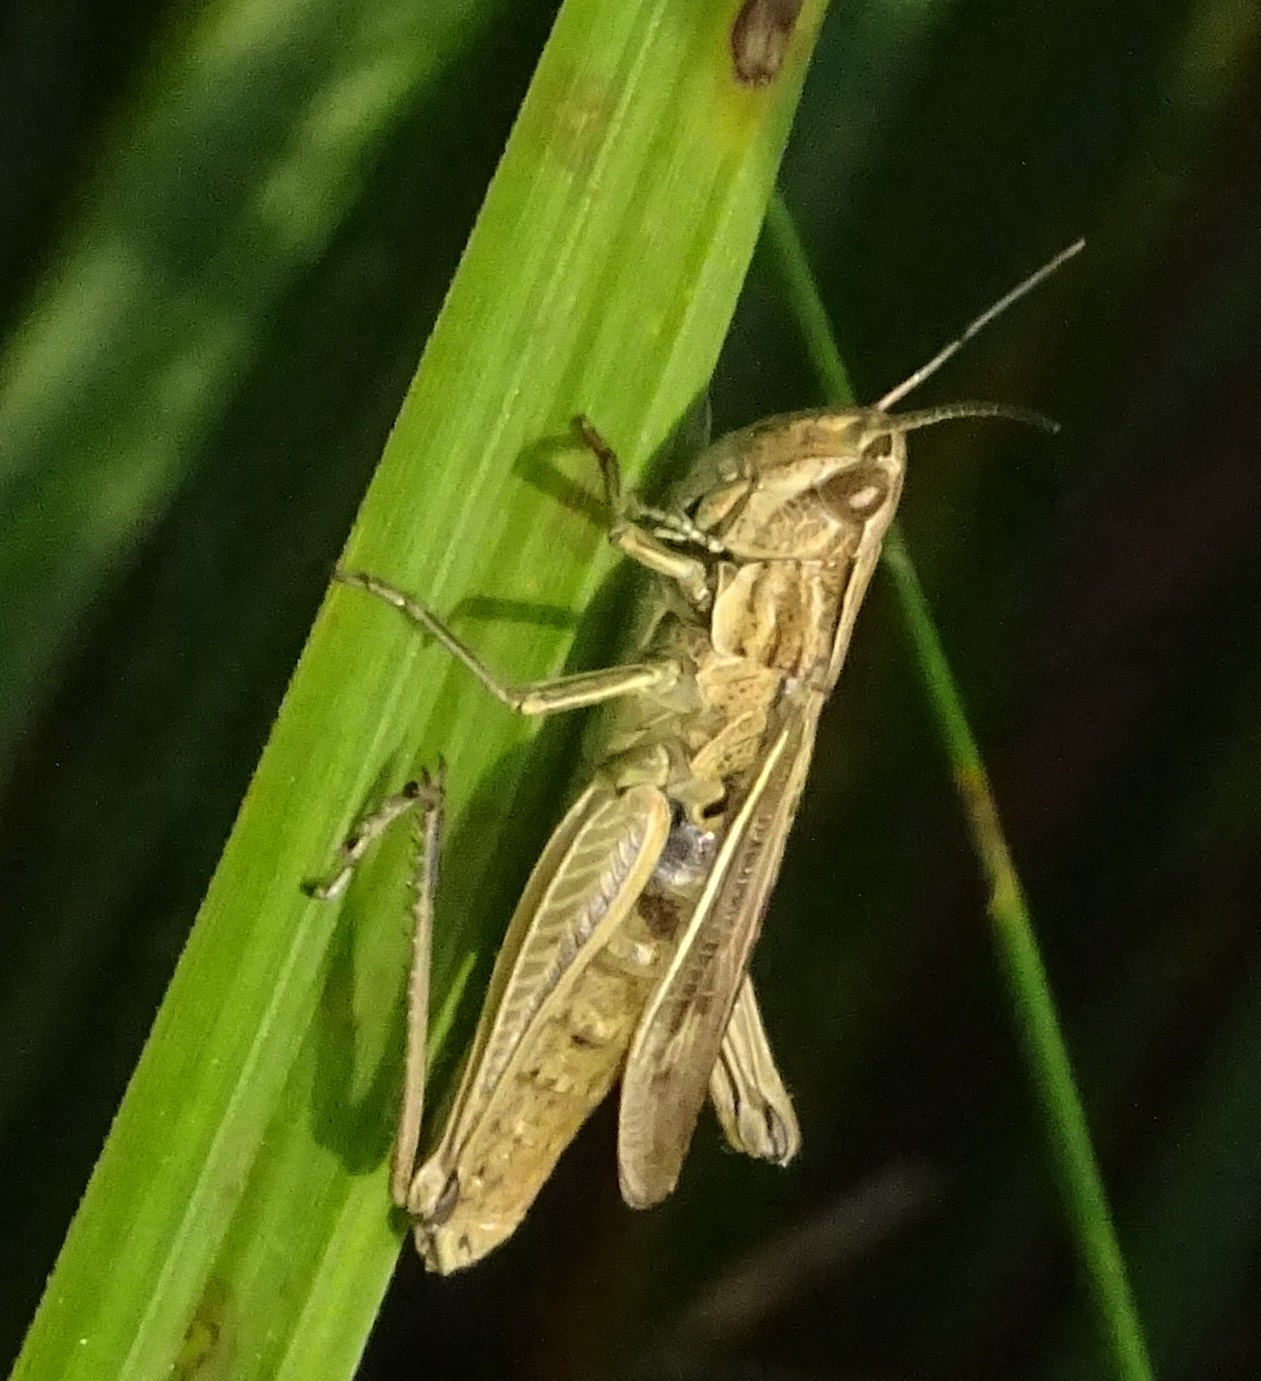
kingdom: Animalia
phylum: Arthropoda
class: Insecta
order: Orthoptera
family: Acrididae
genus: Chorthippus
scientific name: Chorthippus albomarginatus
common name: Lesser marsh grasshopper
